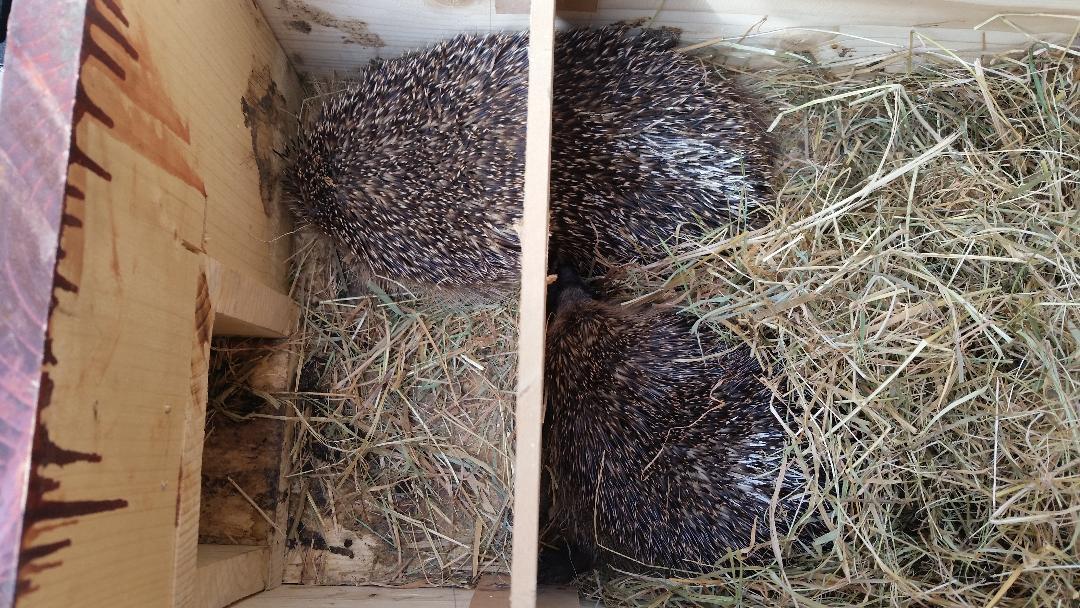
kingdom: Animalia
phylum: Chordata
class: Mammalia
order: Erinaceomorpha
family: Erinaceidae
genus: Erinaceus
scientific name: Erinaceus europaeus
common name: West european hedgehog
